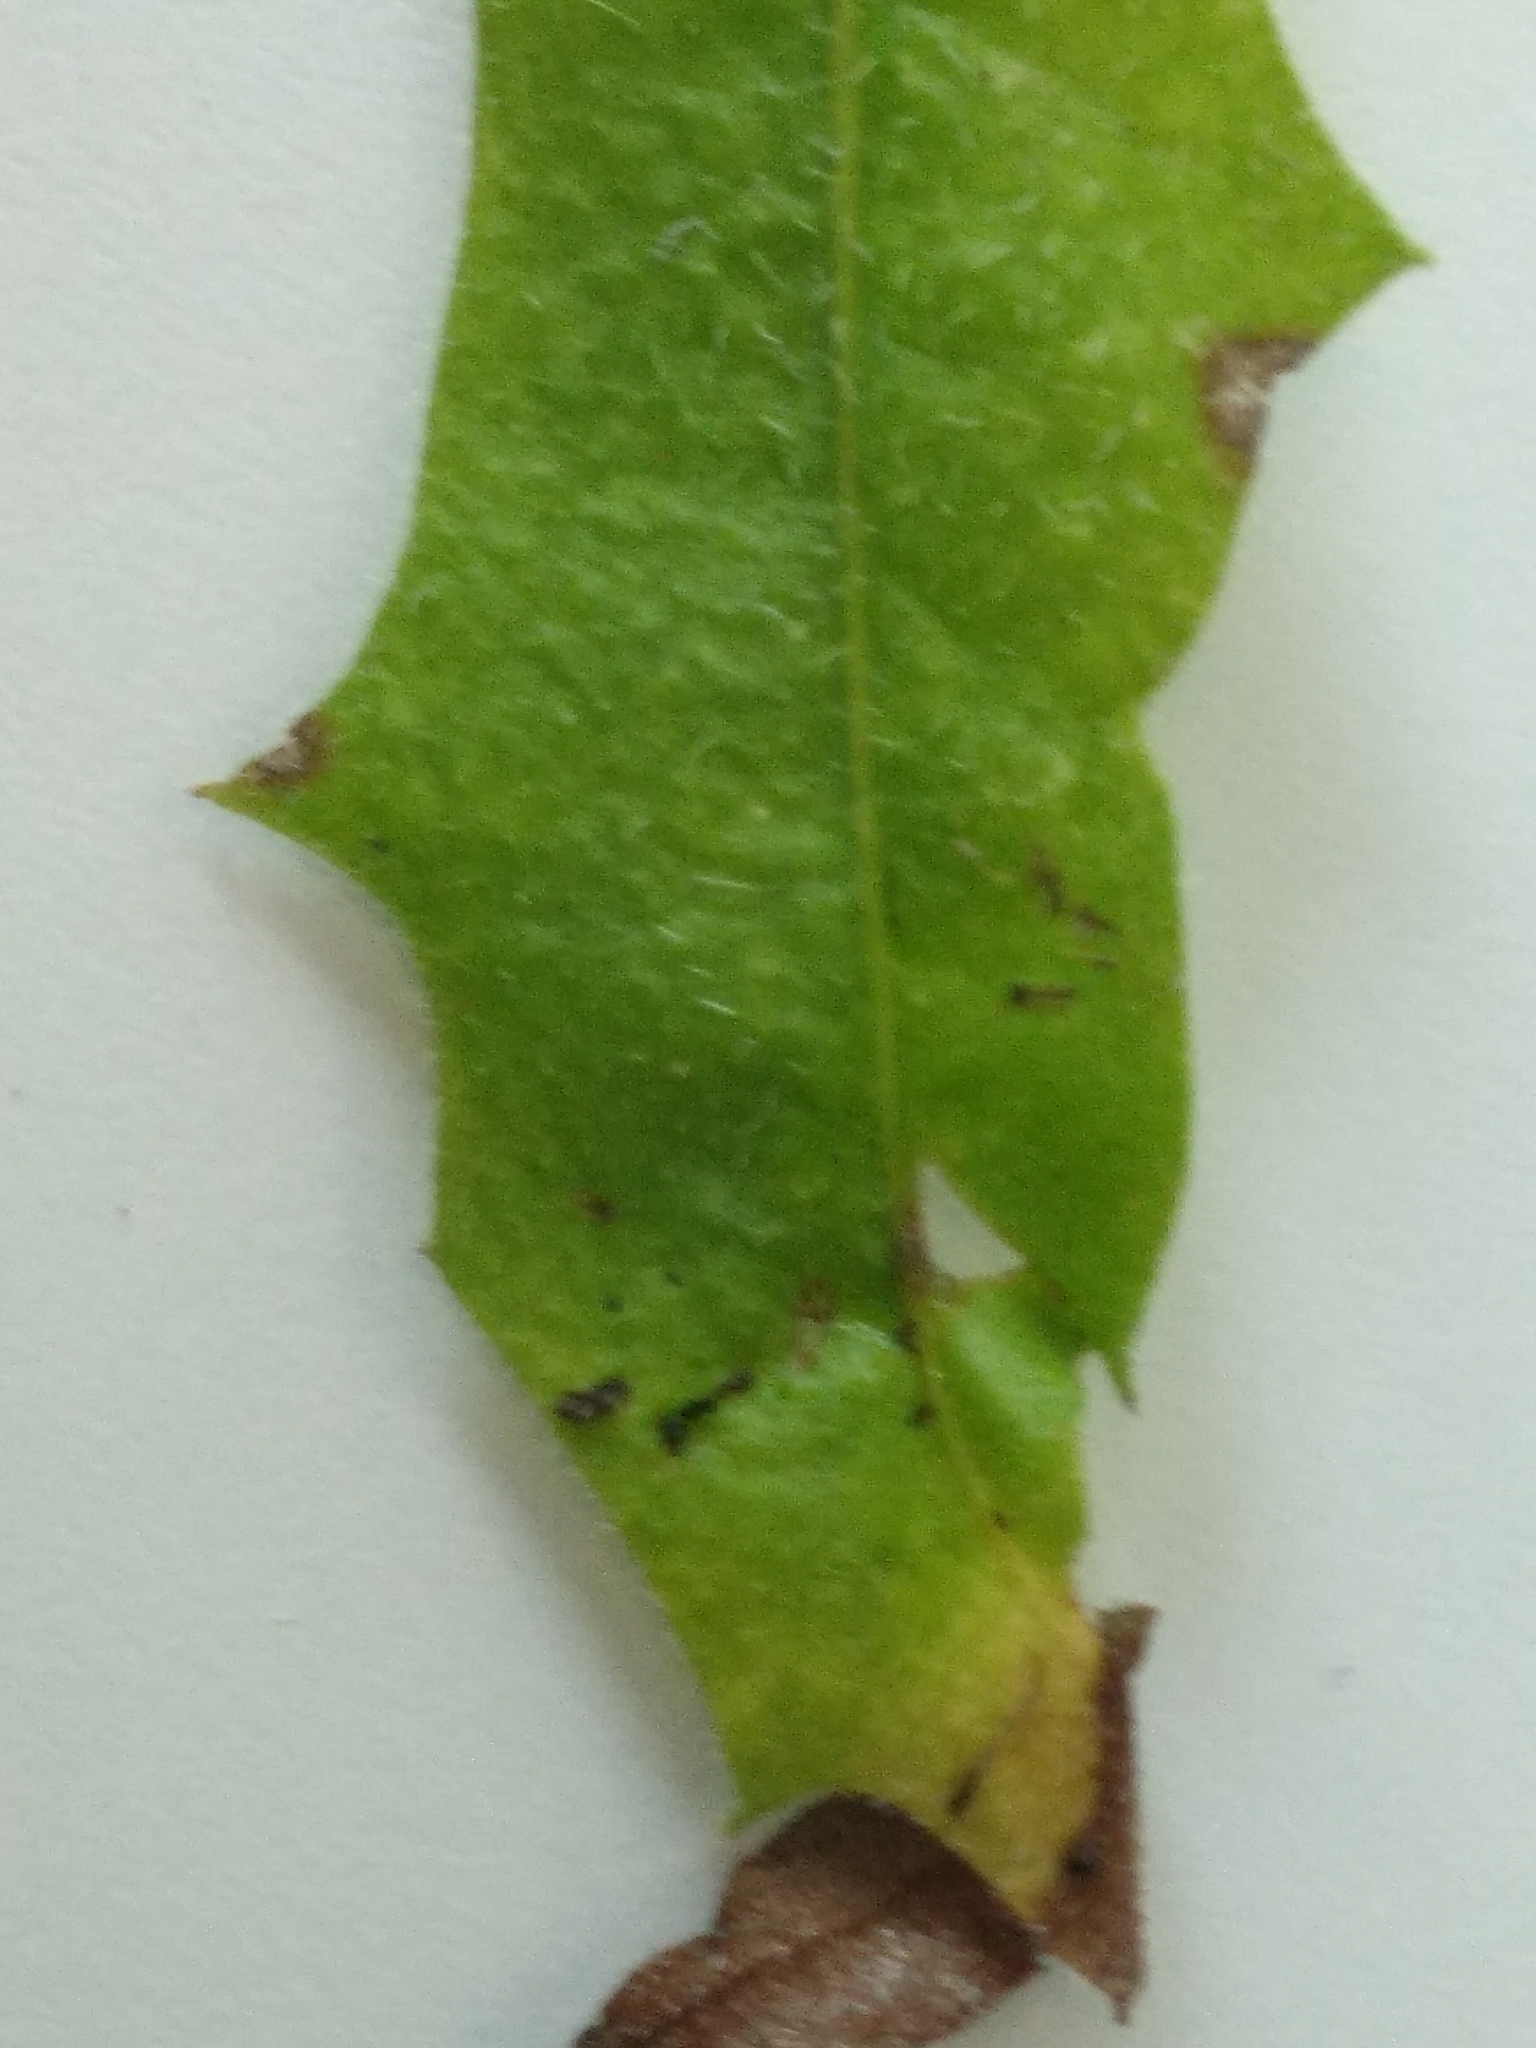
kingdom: Plantae
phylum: Tracheophyta
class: Magnoliopsida
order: Asterales
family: Asteraceae
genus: Leontodon
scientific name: Leontodon hispidus
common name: Rough hawkbit
